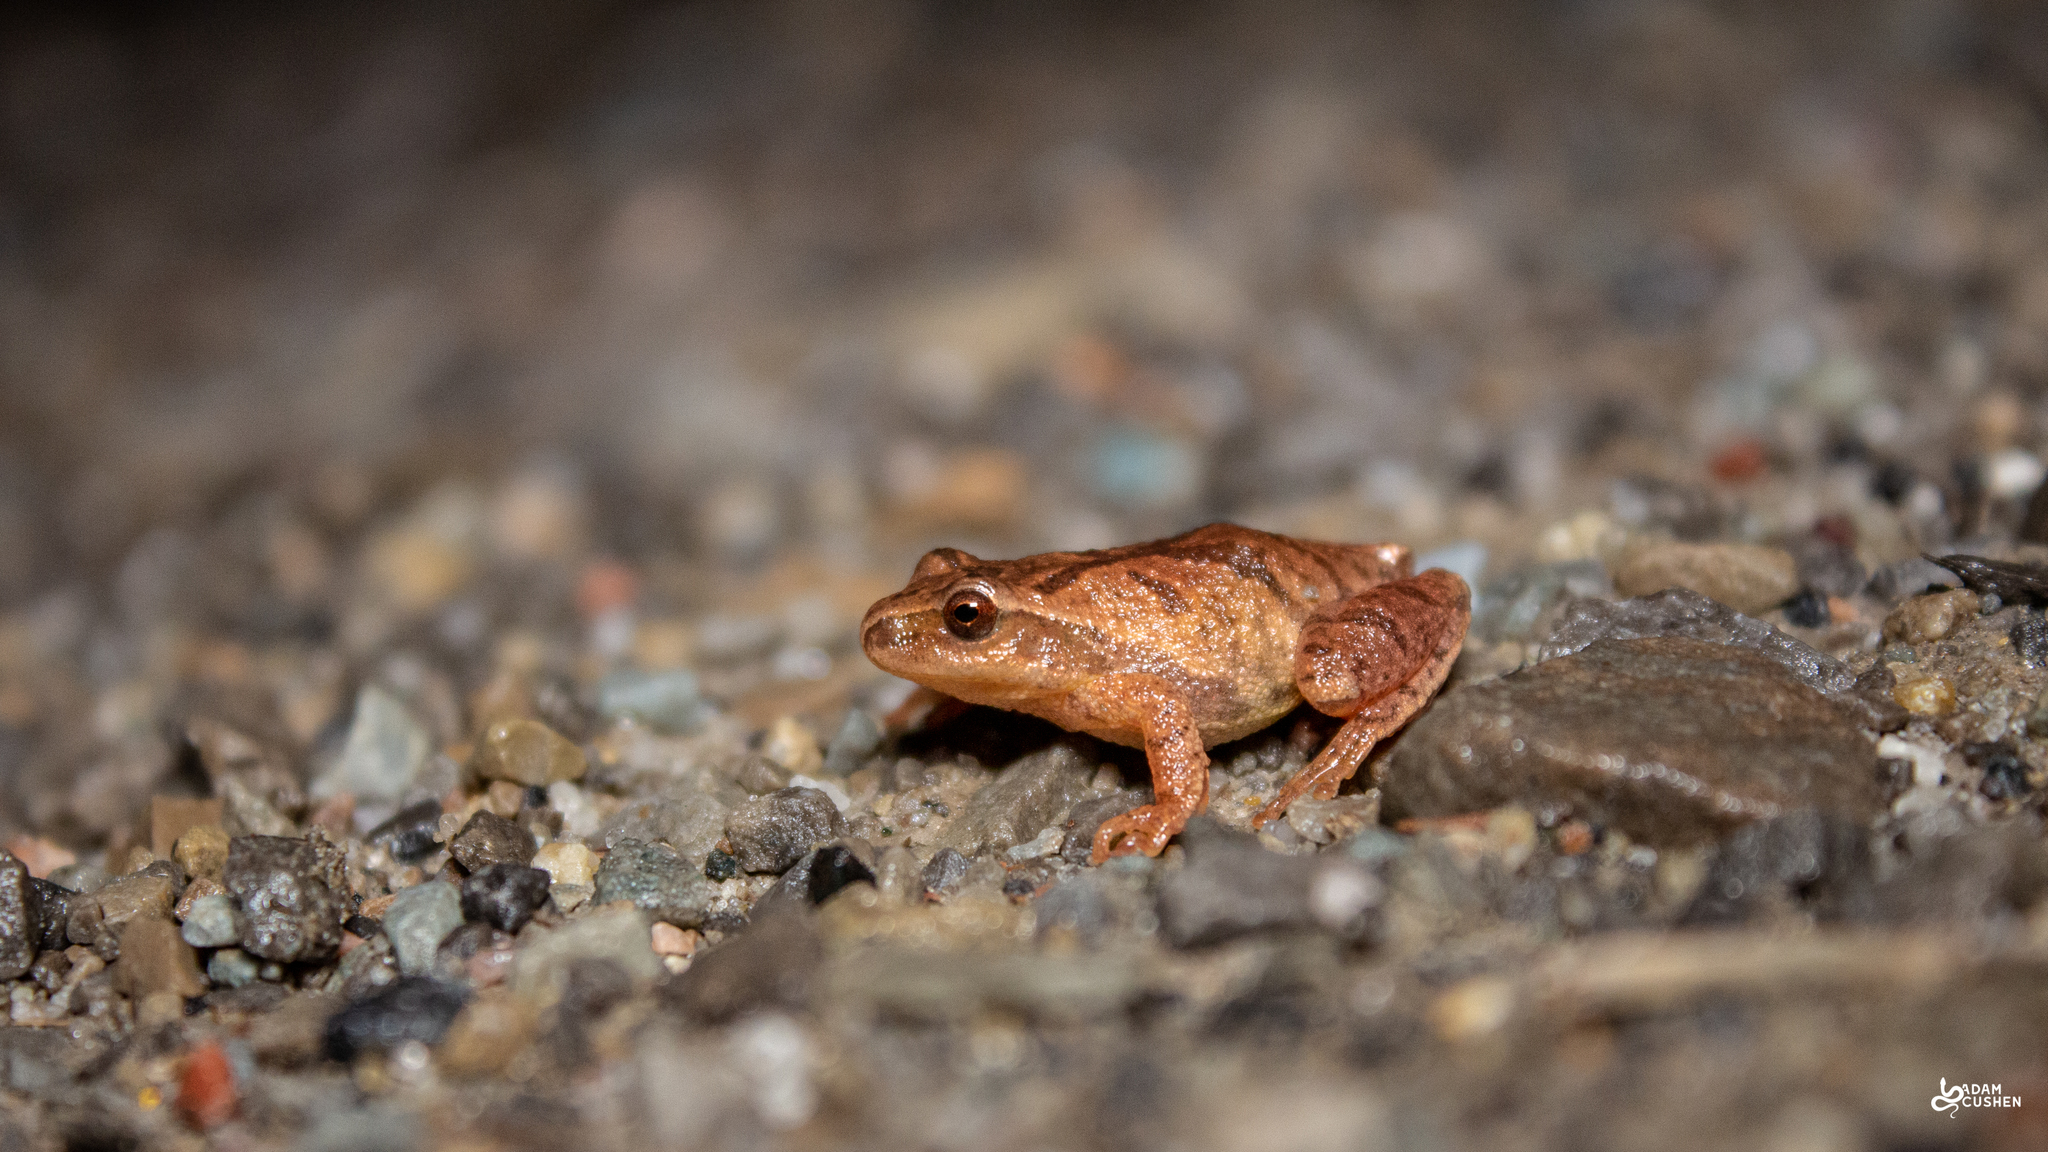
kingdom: Animalia
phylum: Chordata
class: Amphibia
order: Anura
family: Hylidae
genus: Pseudacris
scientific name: Pseudacris crucifer
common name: Spring peeper
